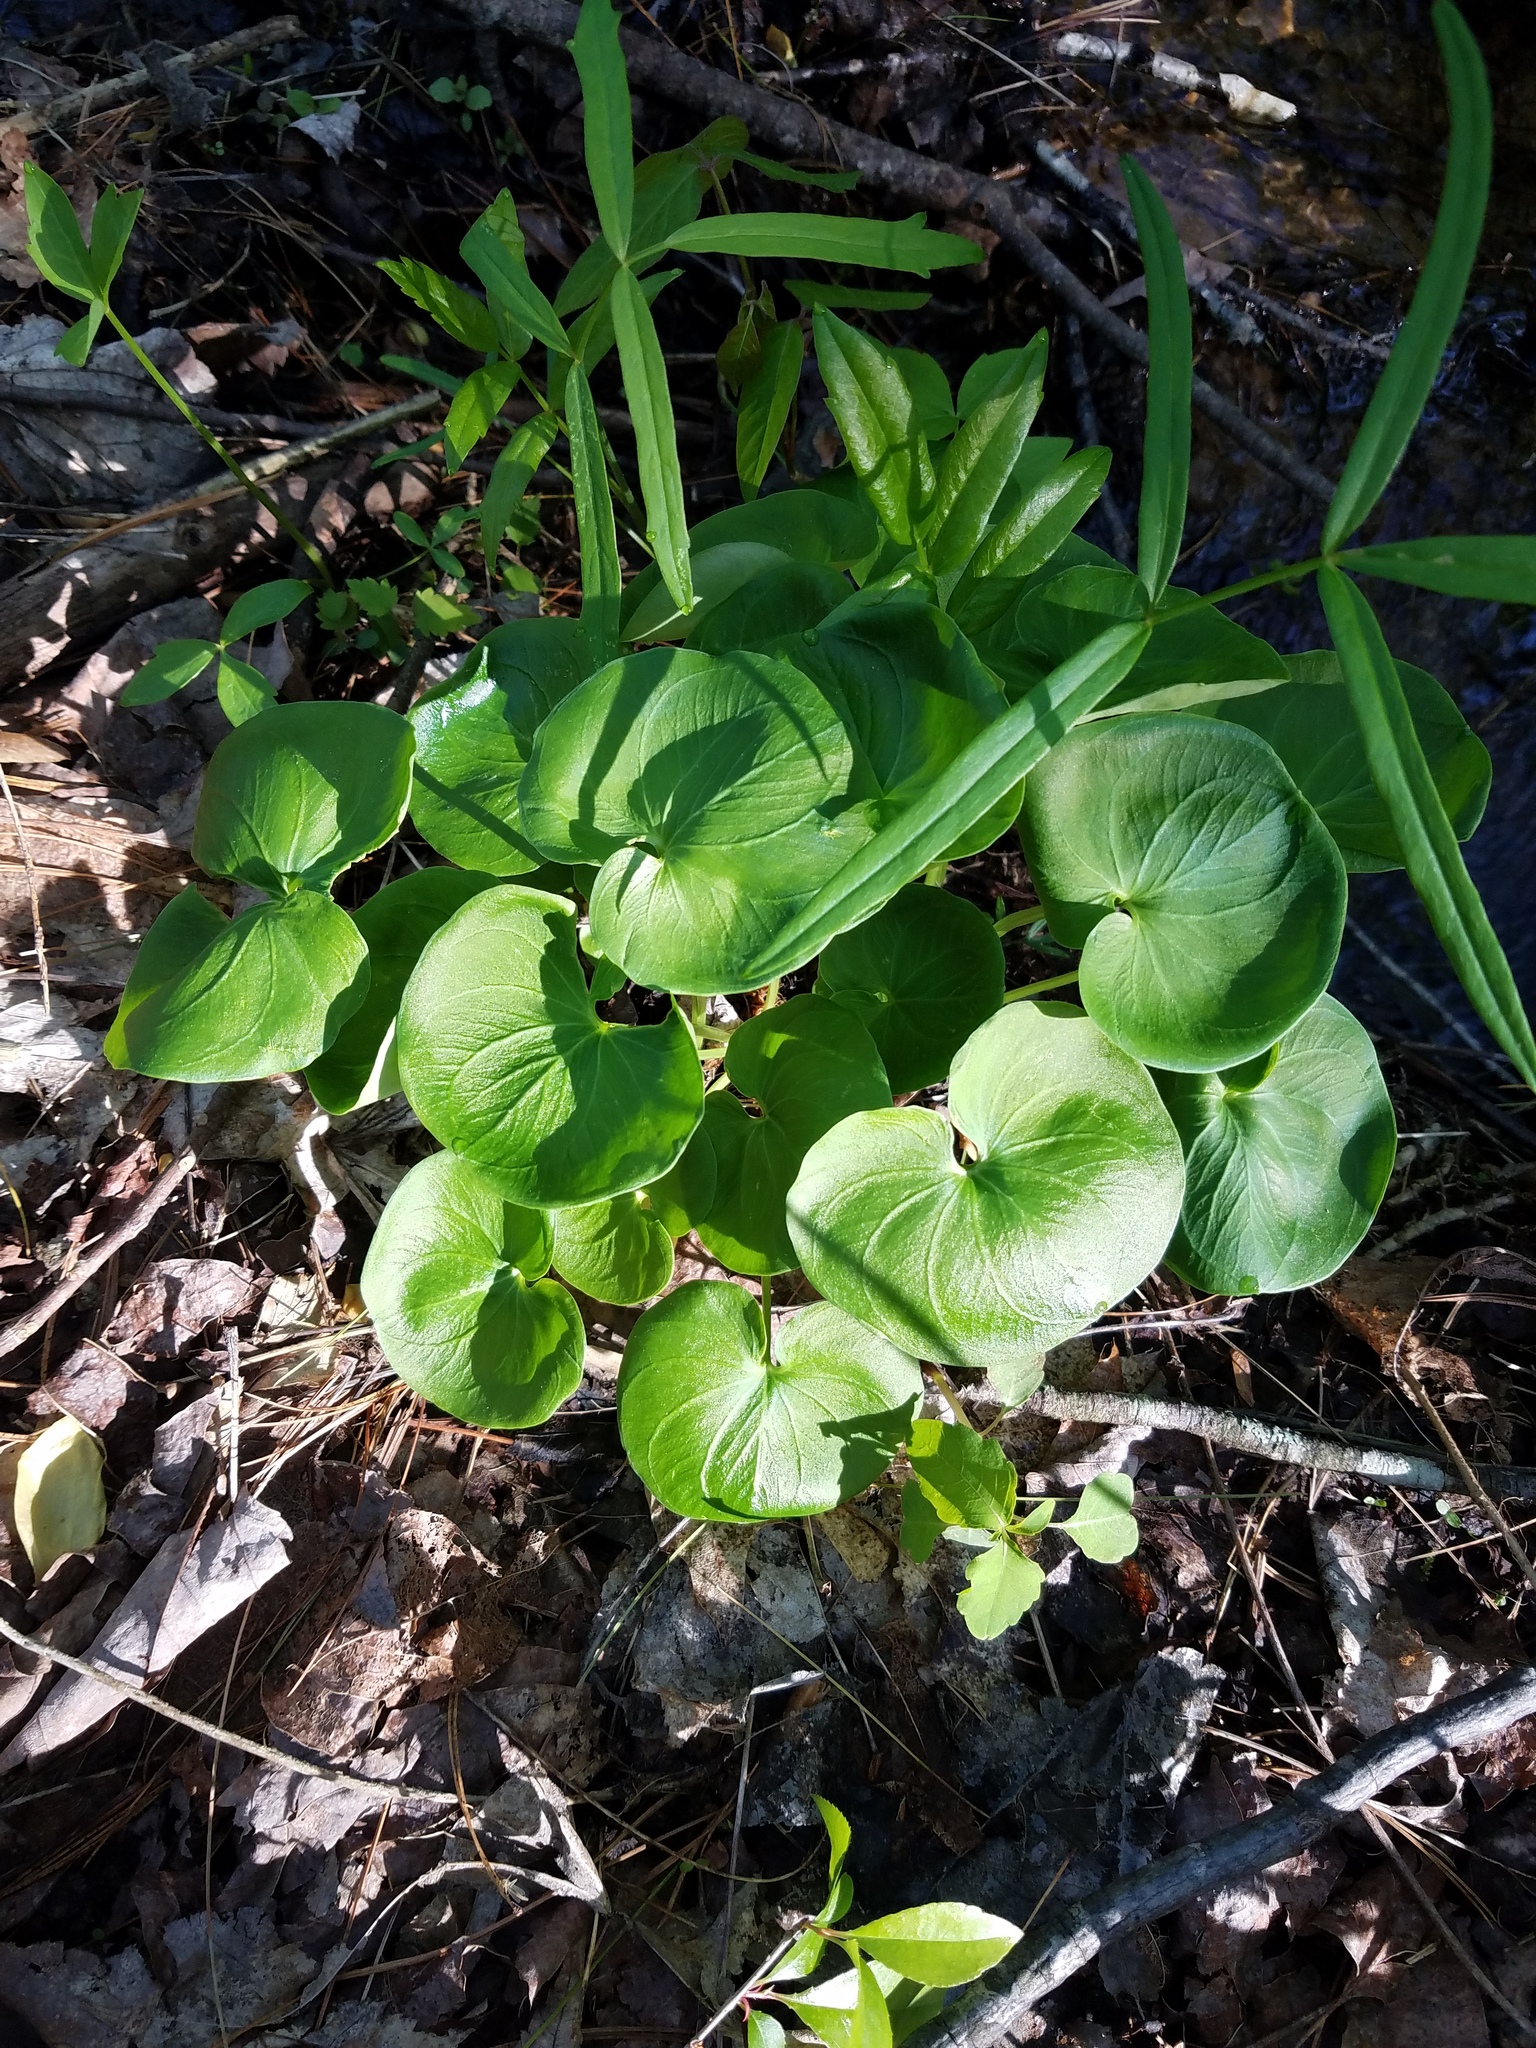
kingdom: Plantae
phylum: Tracheophyta
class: Magnoliopsida
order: Celastrales
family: Parnassiaceae
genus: Parnassia
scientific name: Parnassia asarifolia
